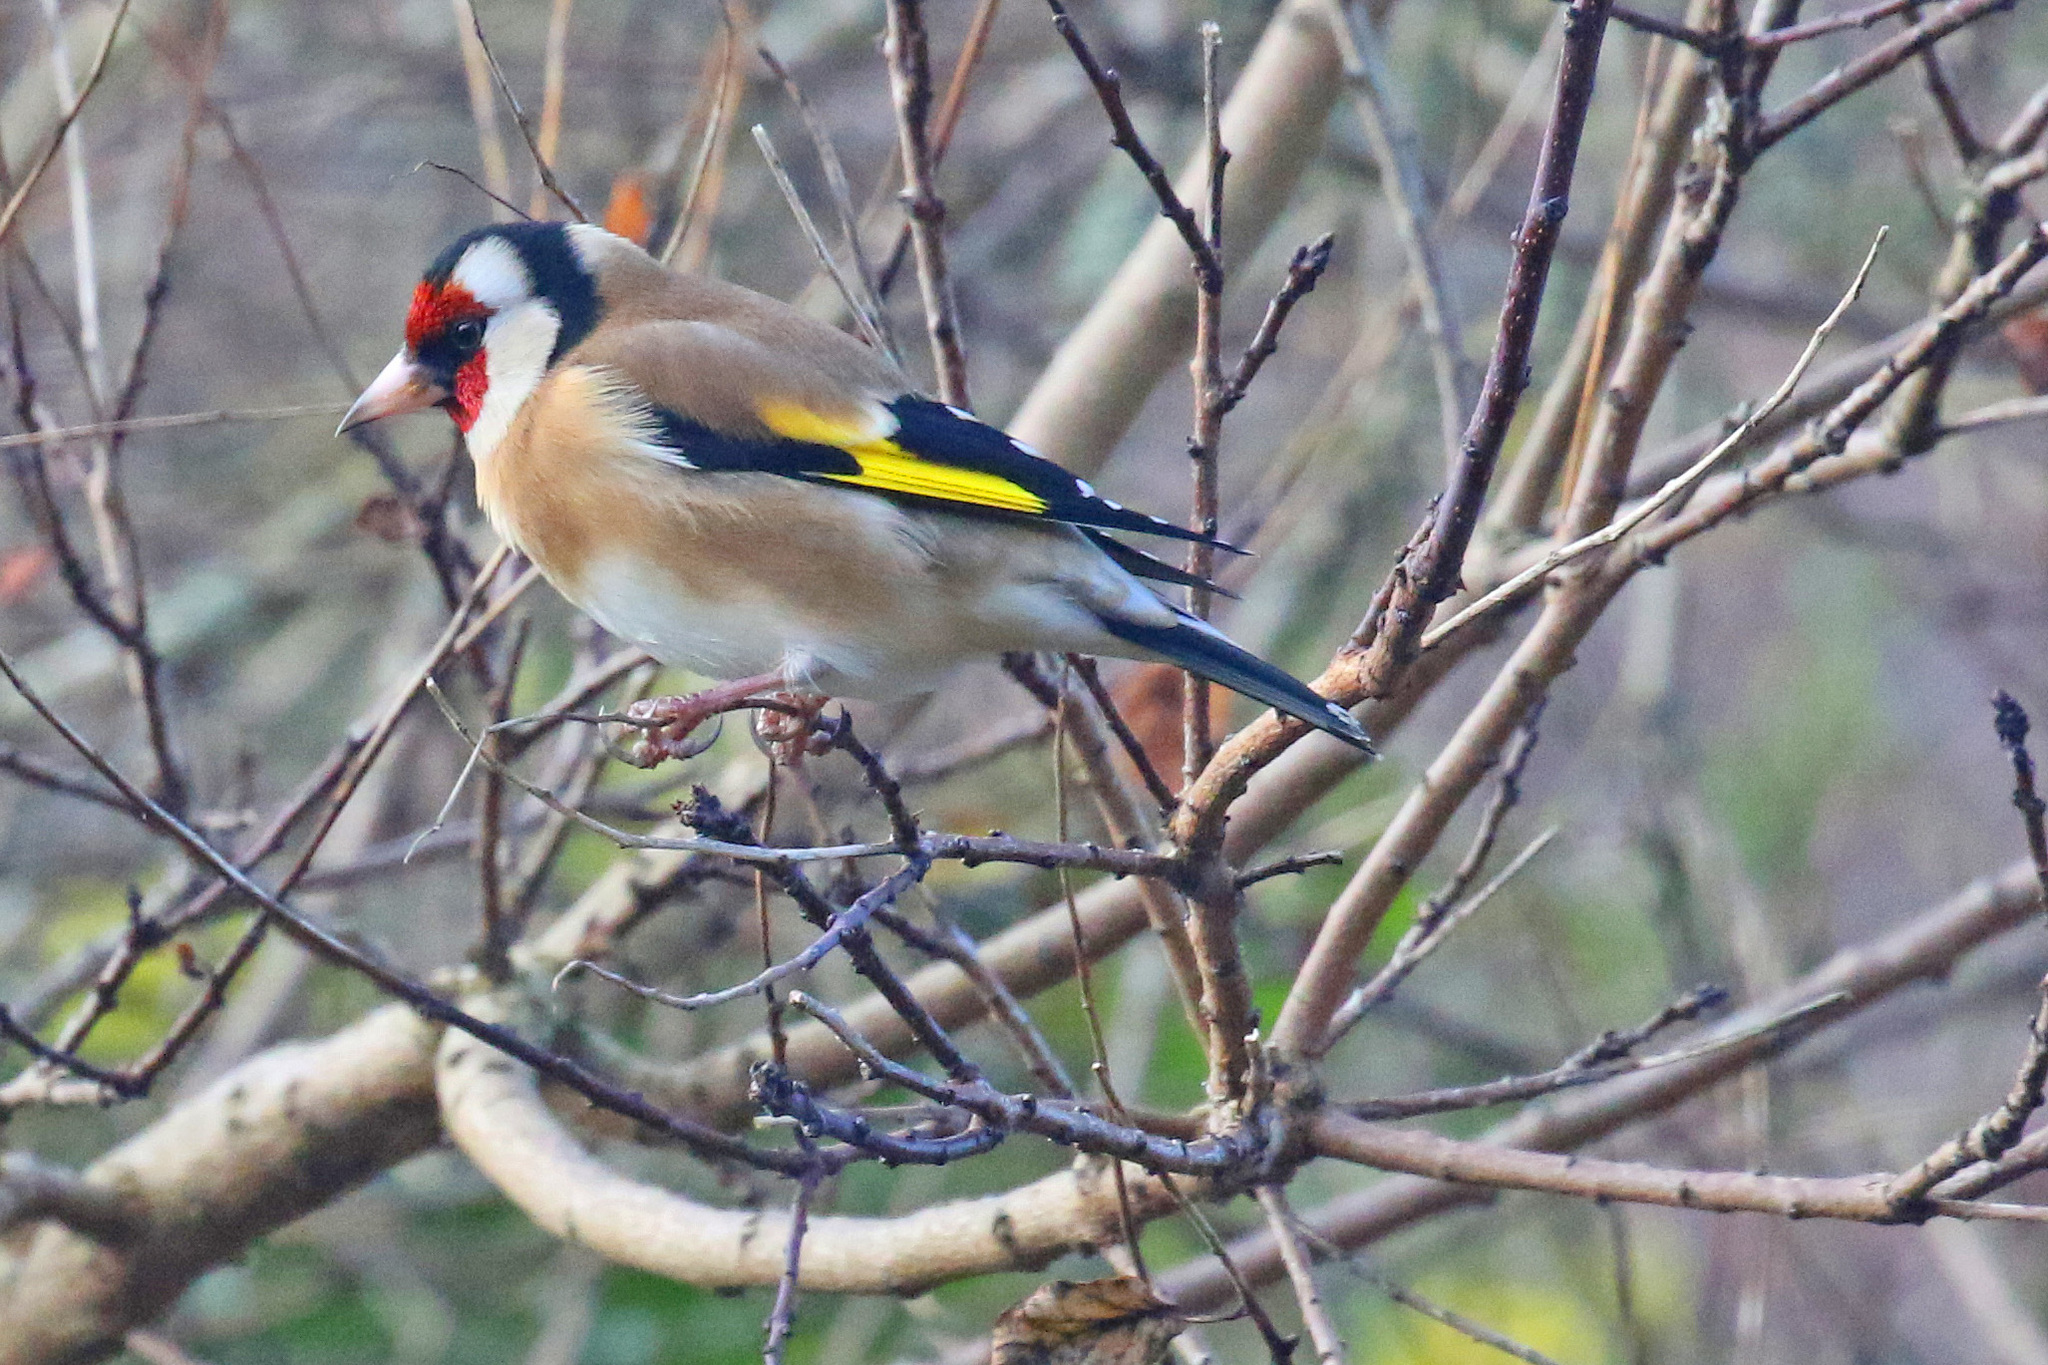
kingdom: Animalia
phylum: Chordata
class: Aves
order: Passeriformes
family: Fringillidae
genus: Carduelis
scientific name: Carduelis carduelis
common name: European goldfinch
